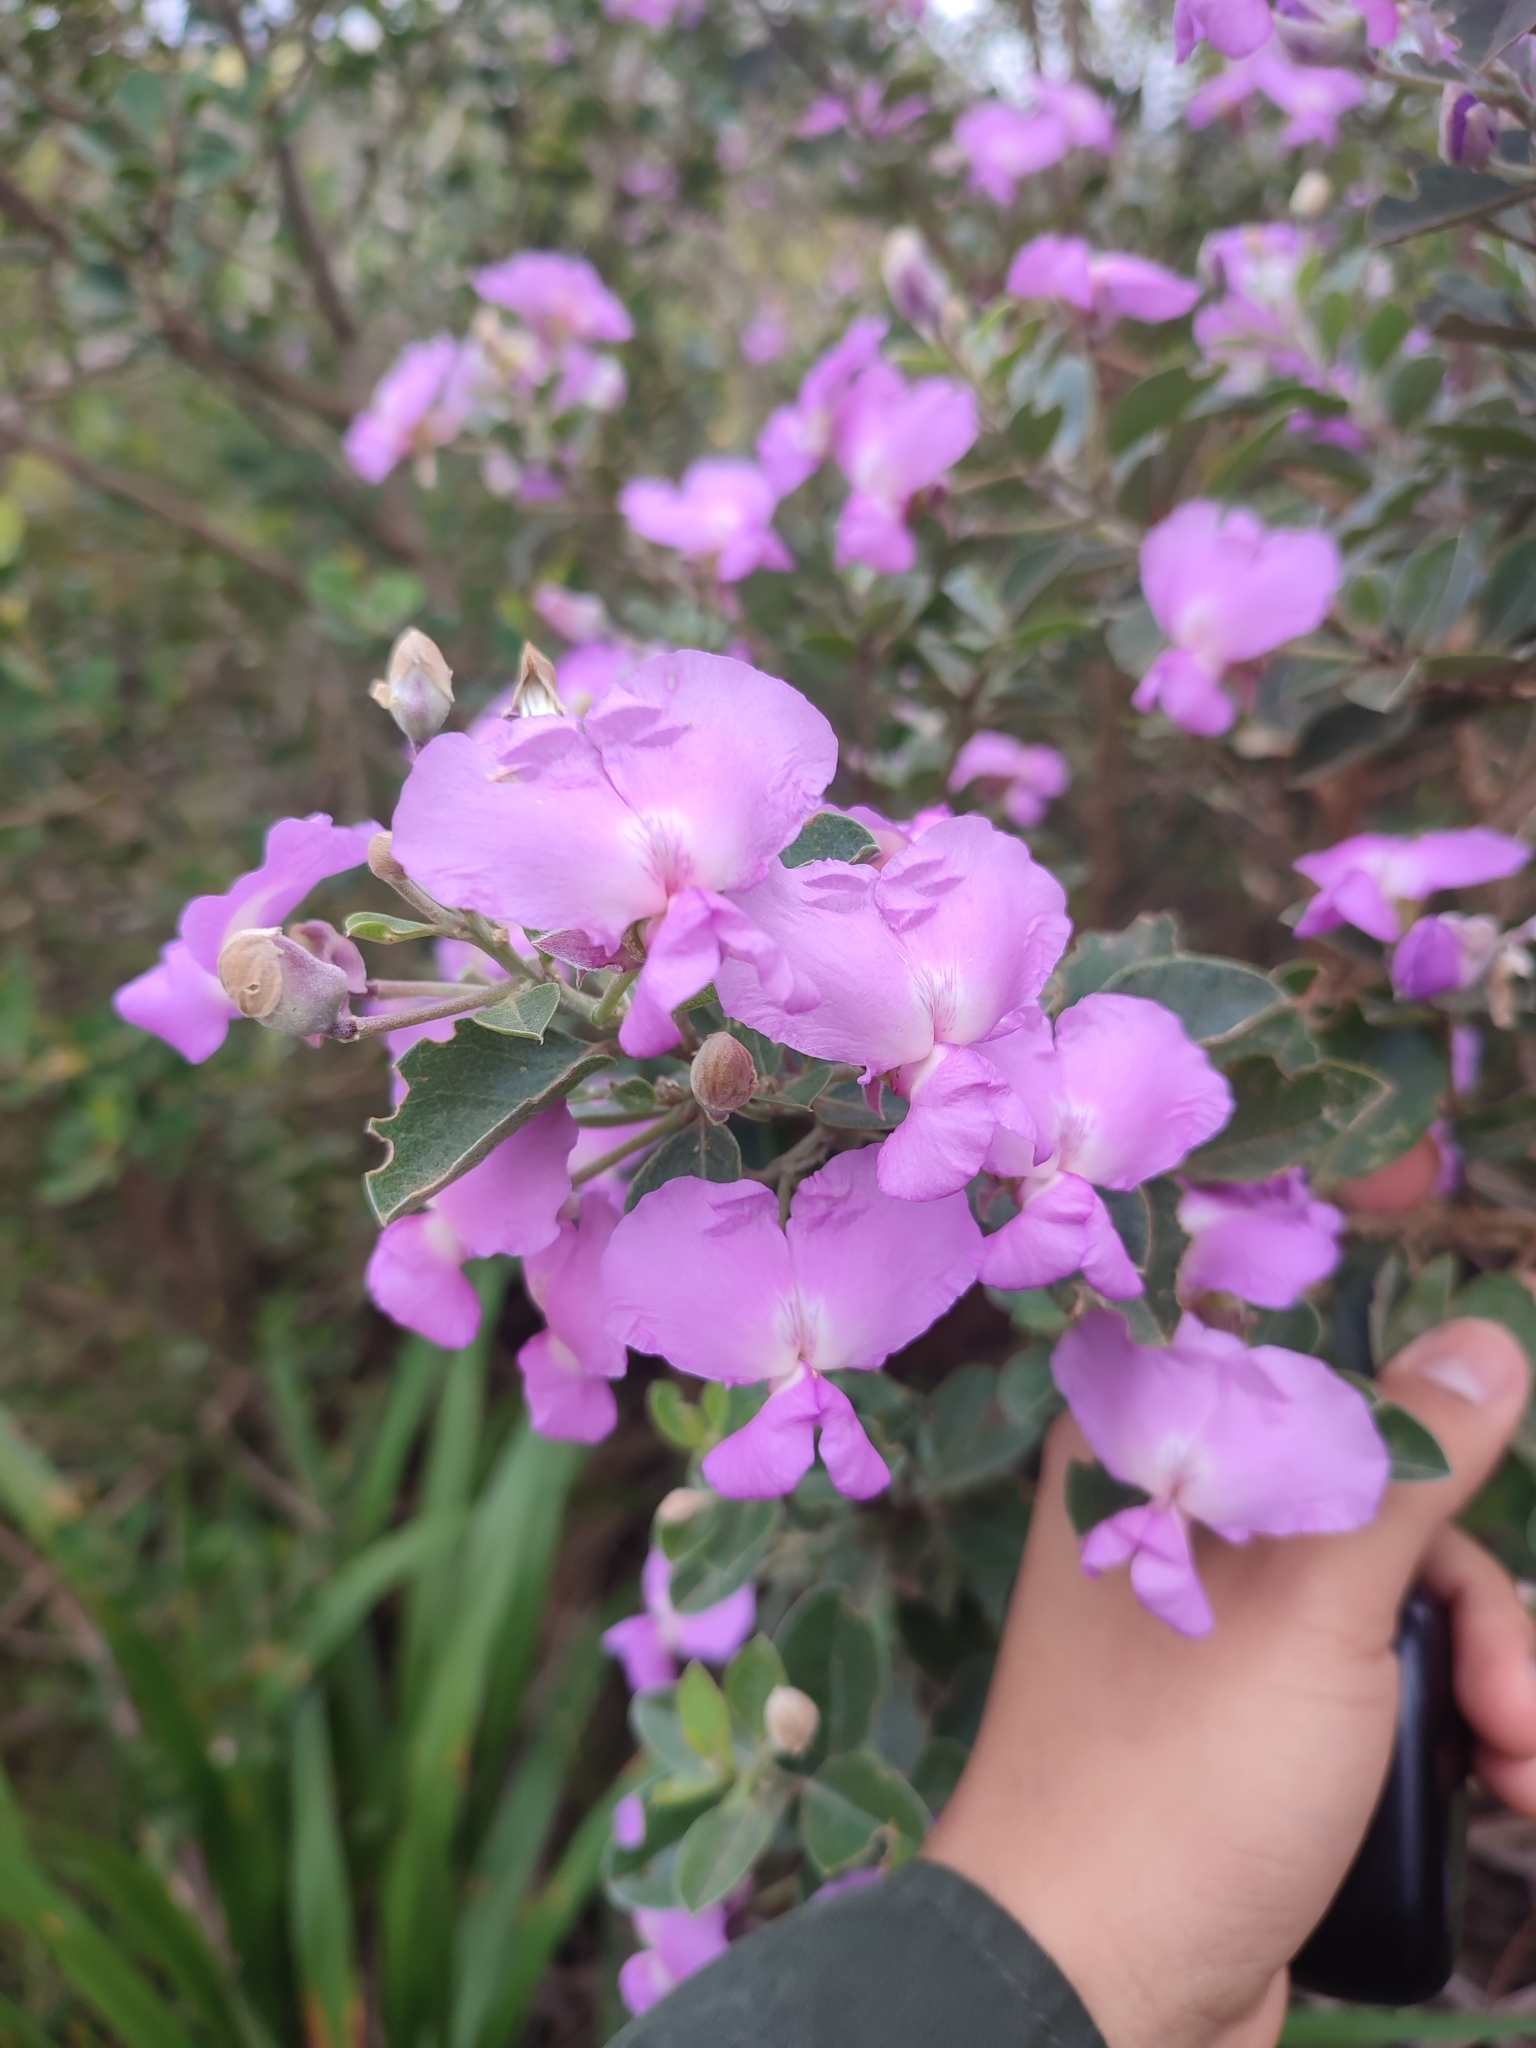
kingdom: Plantae
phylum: Tracheophyta
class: Magnoliopsida
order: Fabales
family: Fabaceae
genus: Podalyria
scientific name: Podalyria calyptrata
